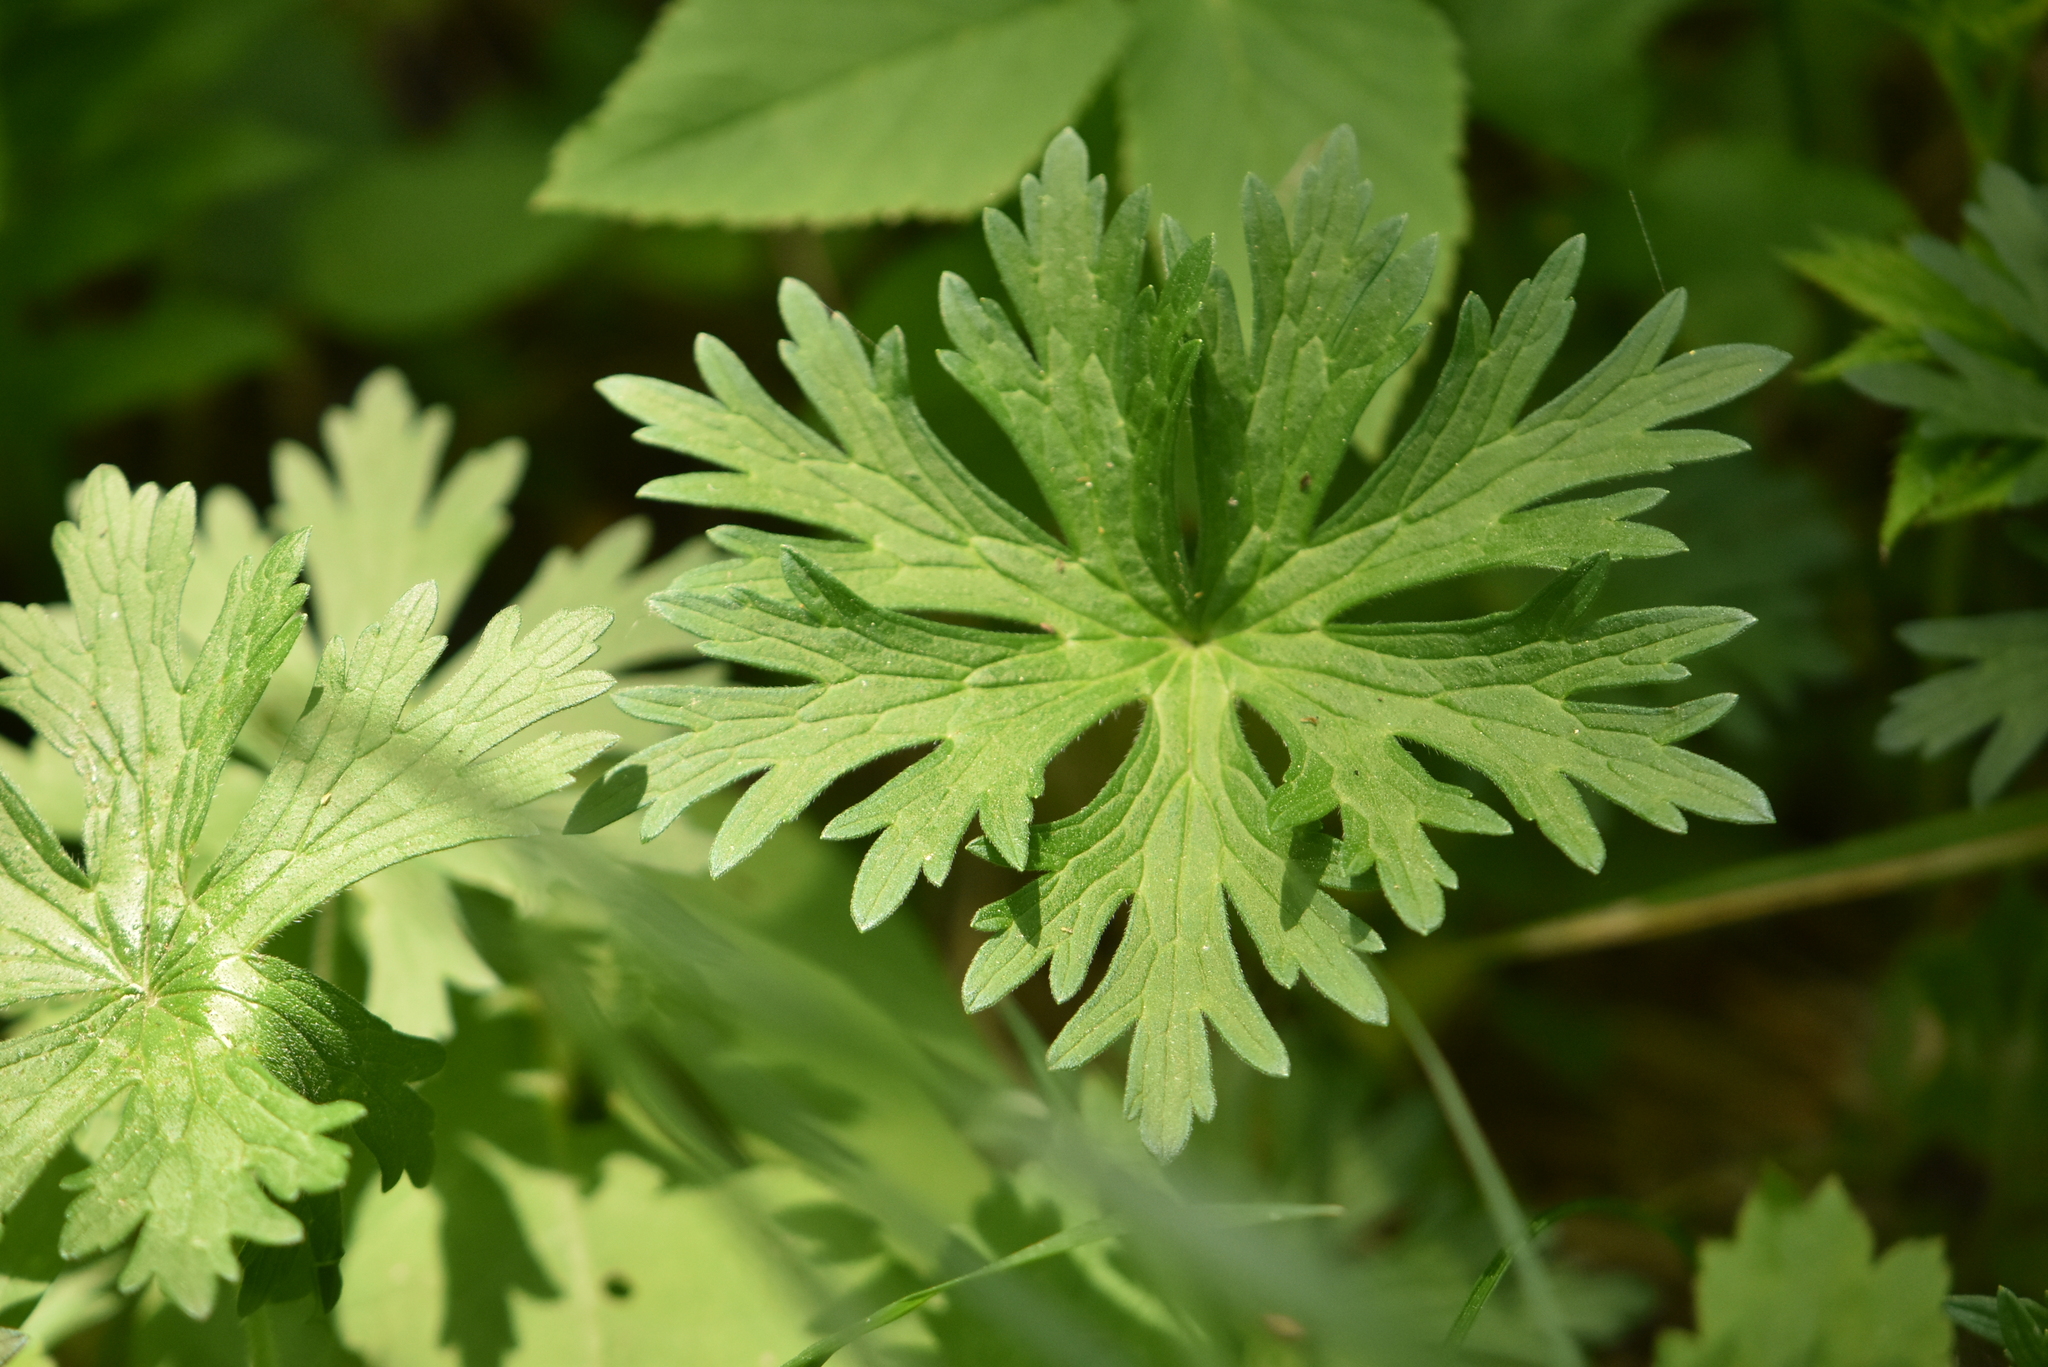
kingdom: Plantae
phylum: Tracheophyta
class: Magnoliopsida
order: Geraniales
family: Geraniaceae
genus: Geranium
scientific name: Geranium pratense
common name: Meadow crane's-bill
